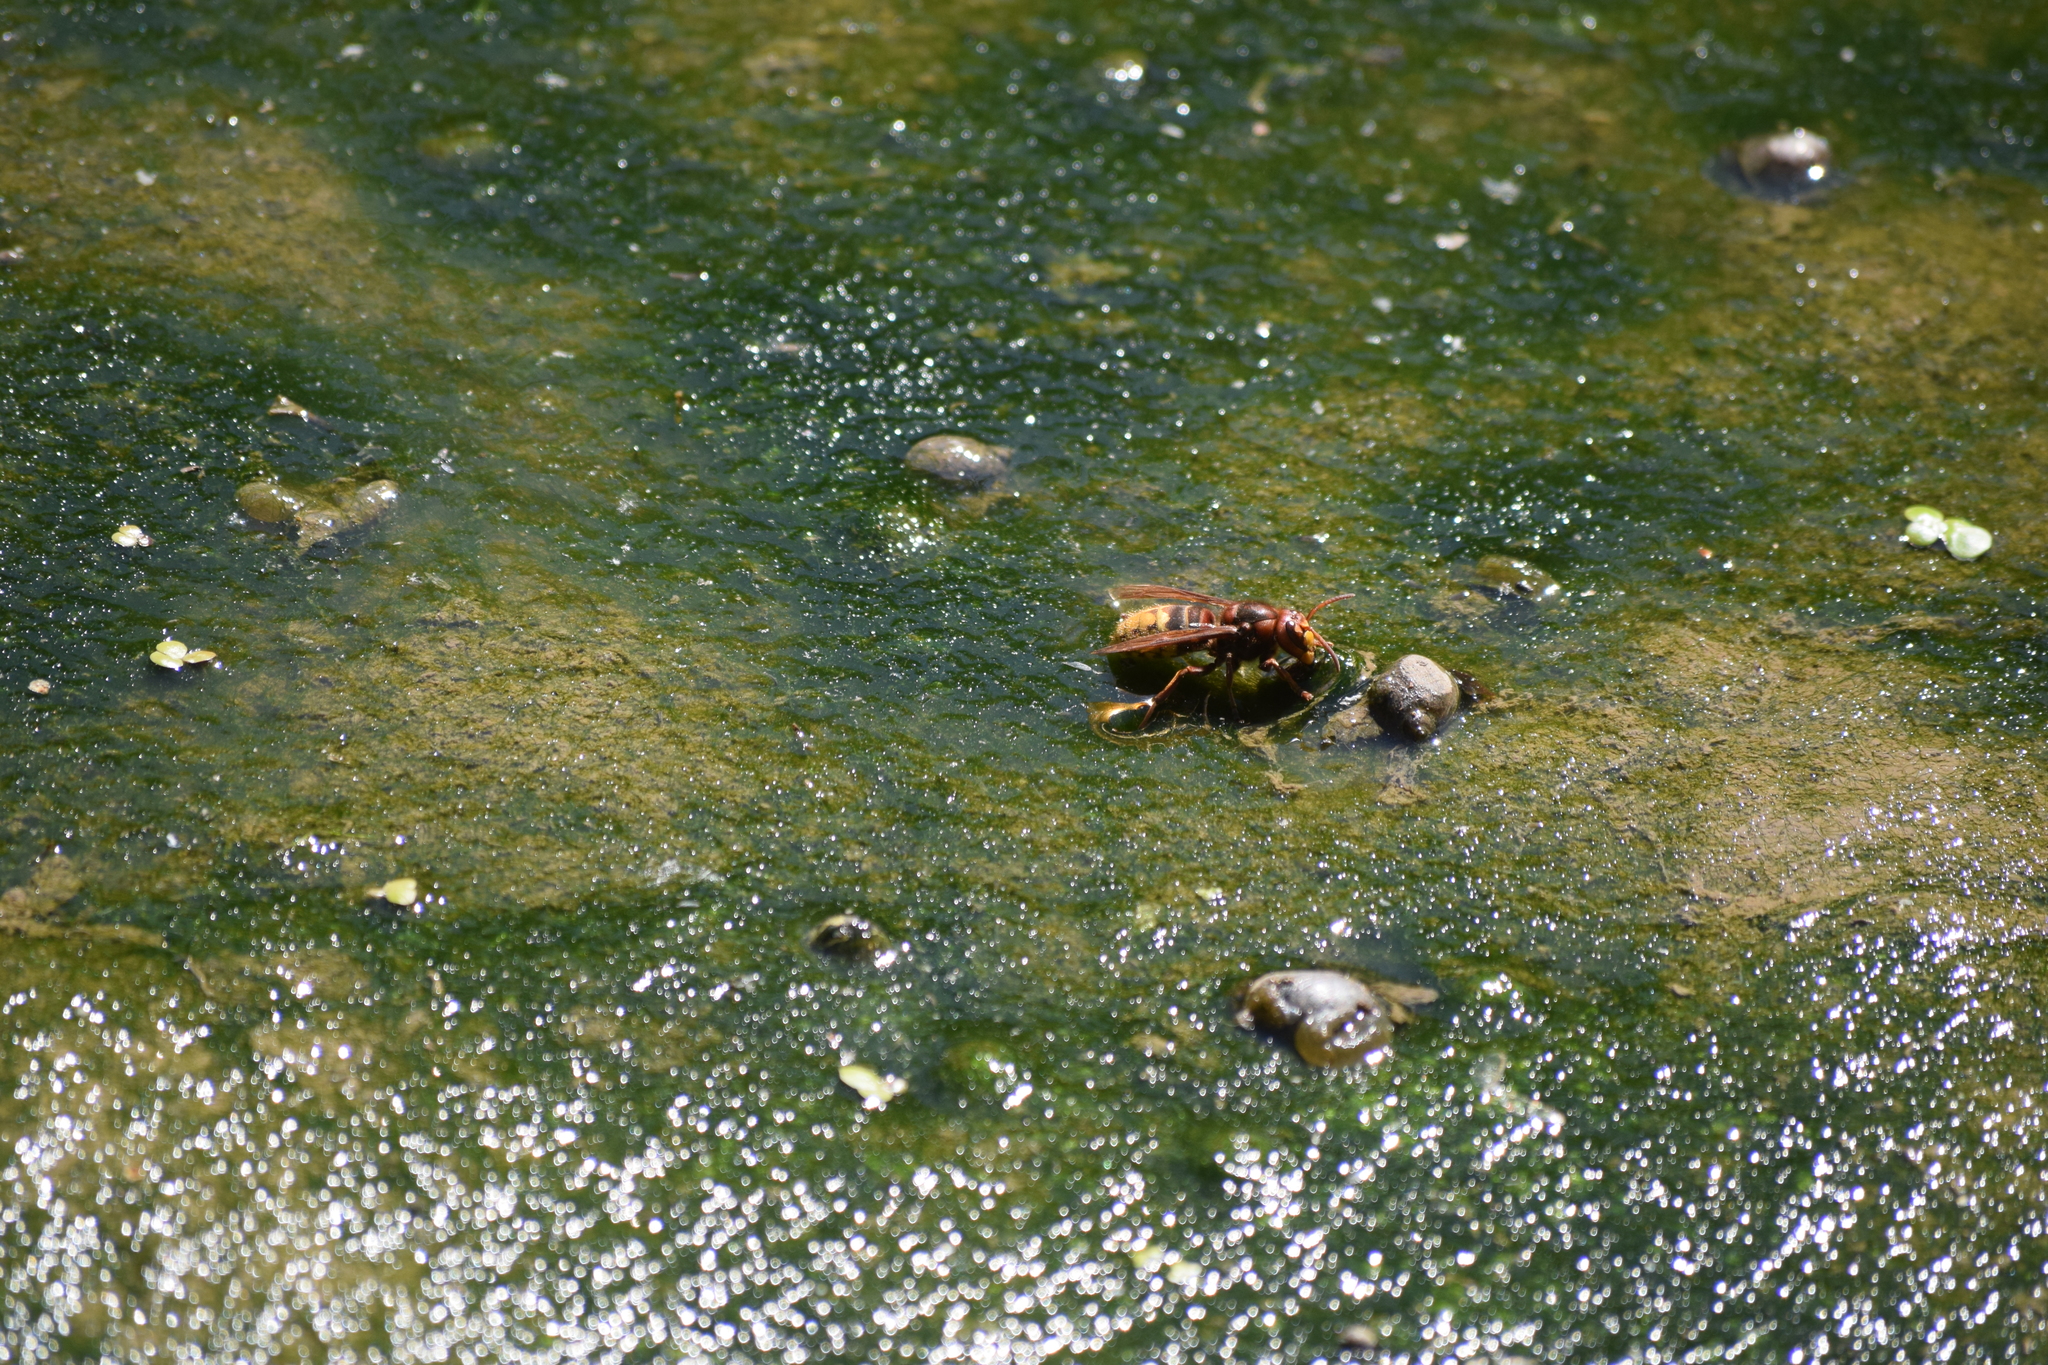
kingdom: Animalia
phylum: Arthropoda
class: Insecta
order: Hymenoptera
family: Vespidae
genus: Vespa
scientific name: Vespa crabro
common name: Hornet
